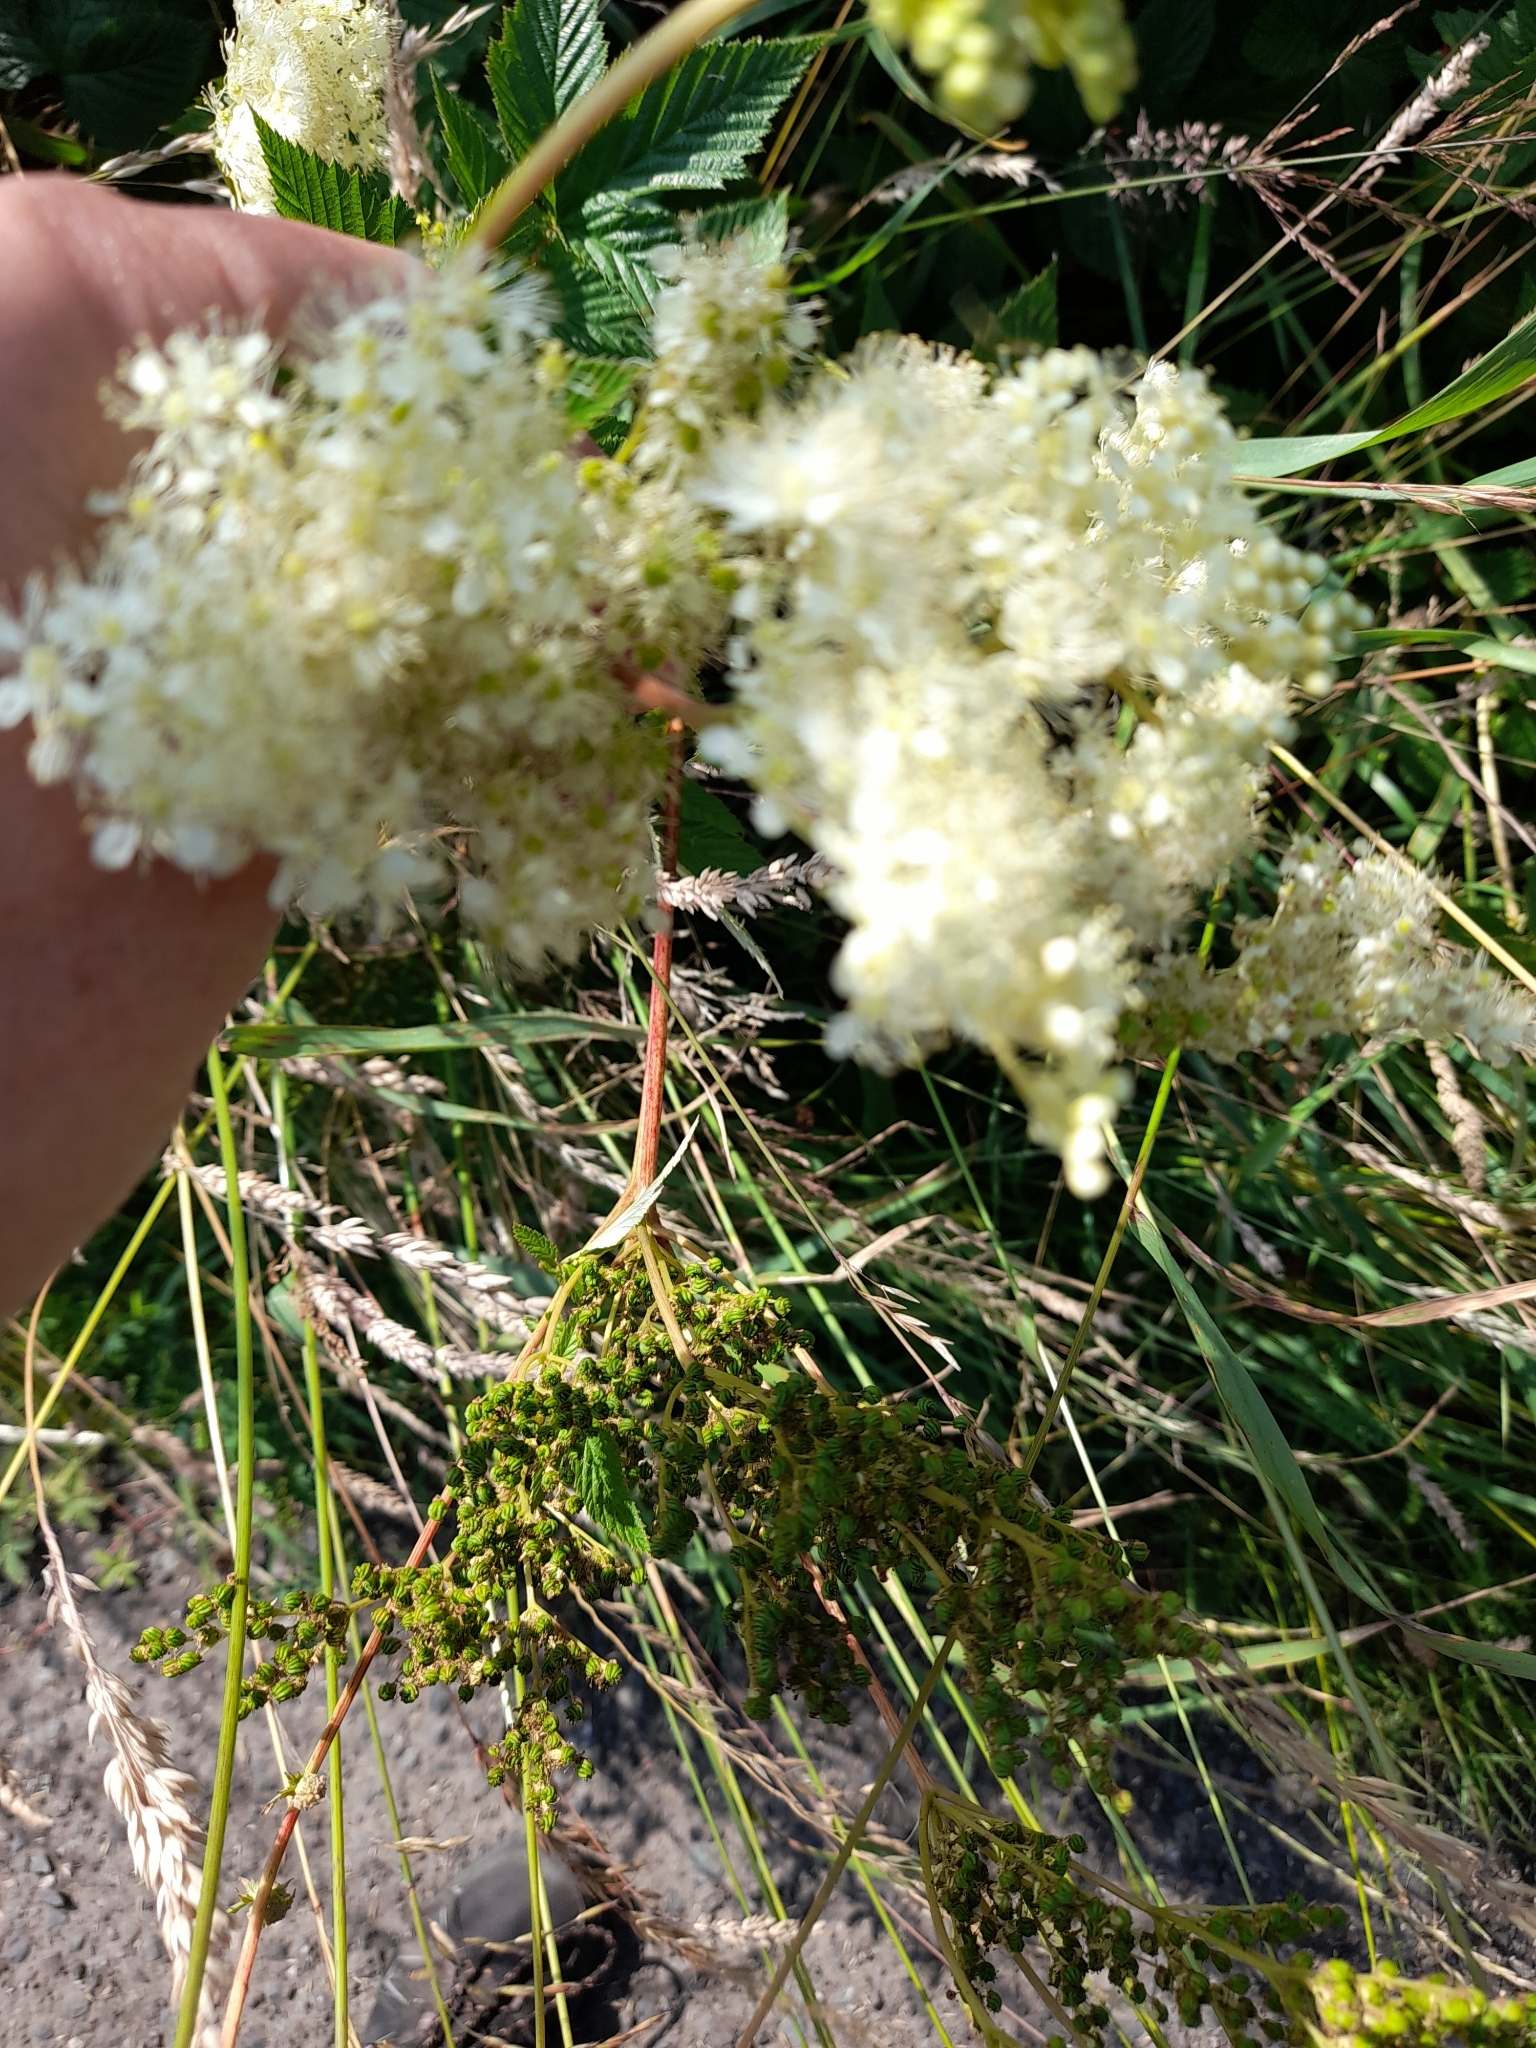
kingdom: Plantae
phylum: Tracheophyta
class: Magnoliopsida
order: Rosales
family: Rosaceae
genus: Filipendula
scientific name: Filipendula ulmaria
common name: Meadowsweet
